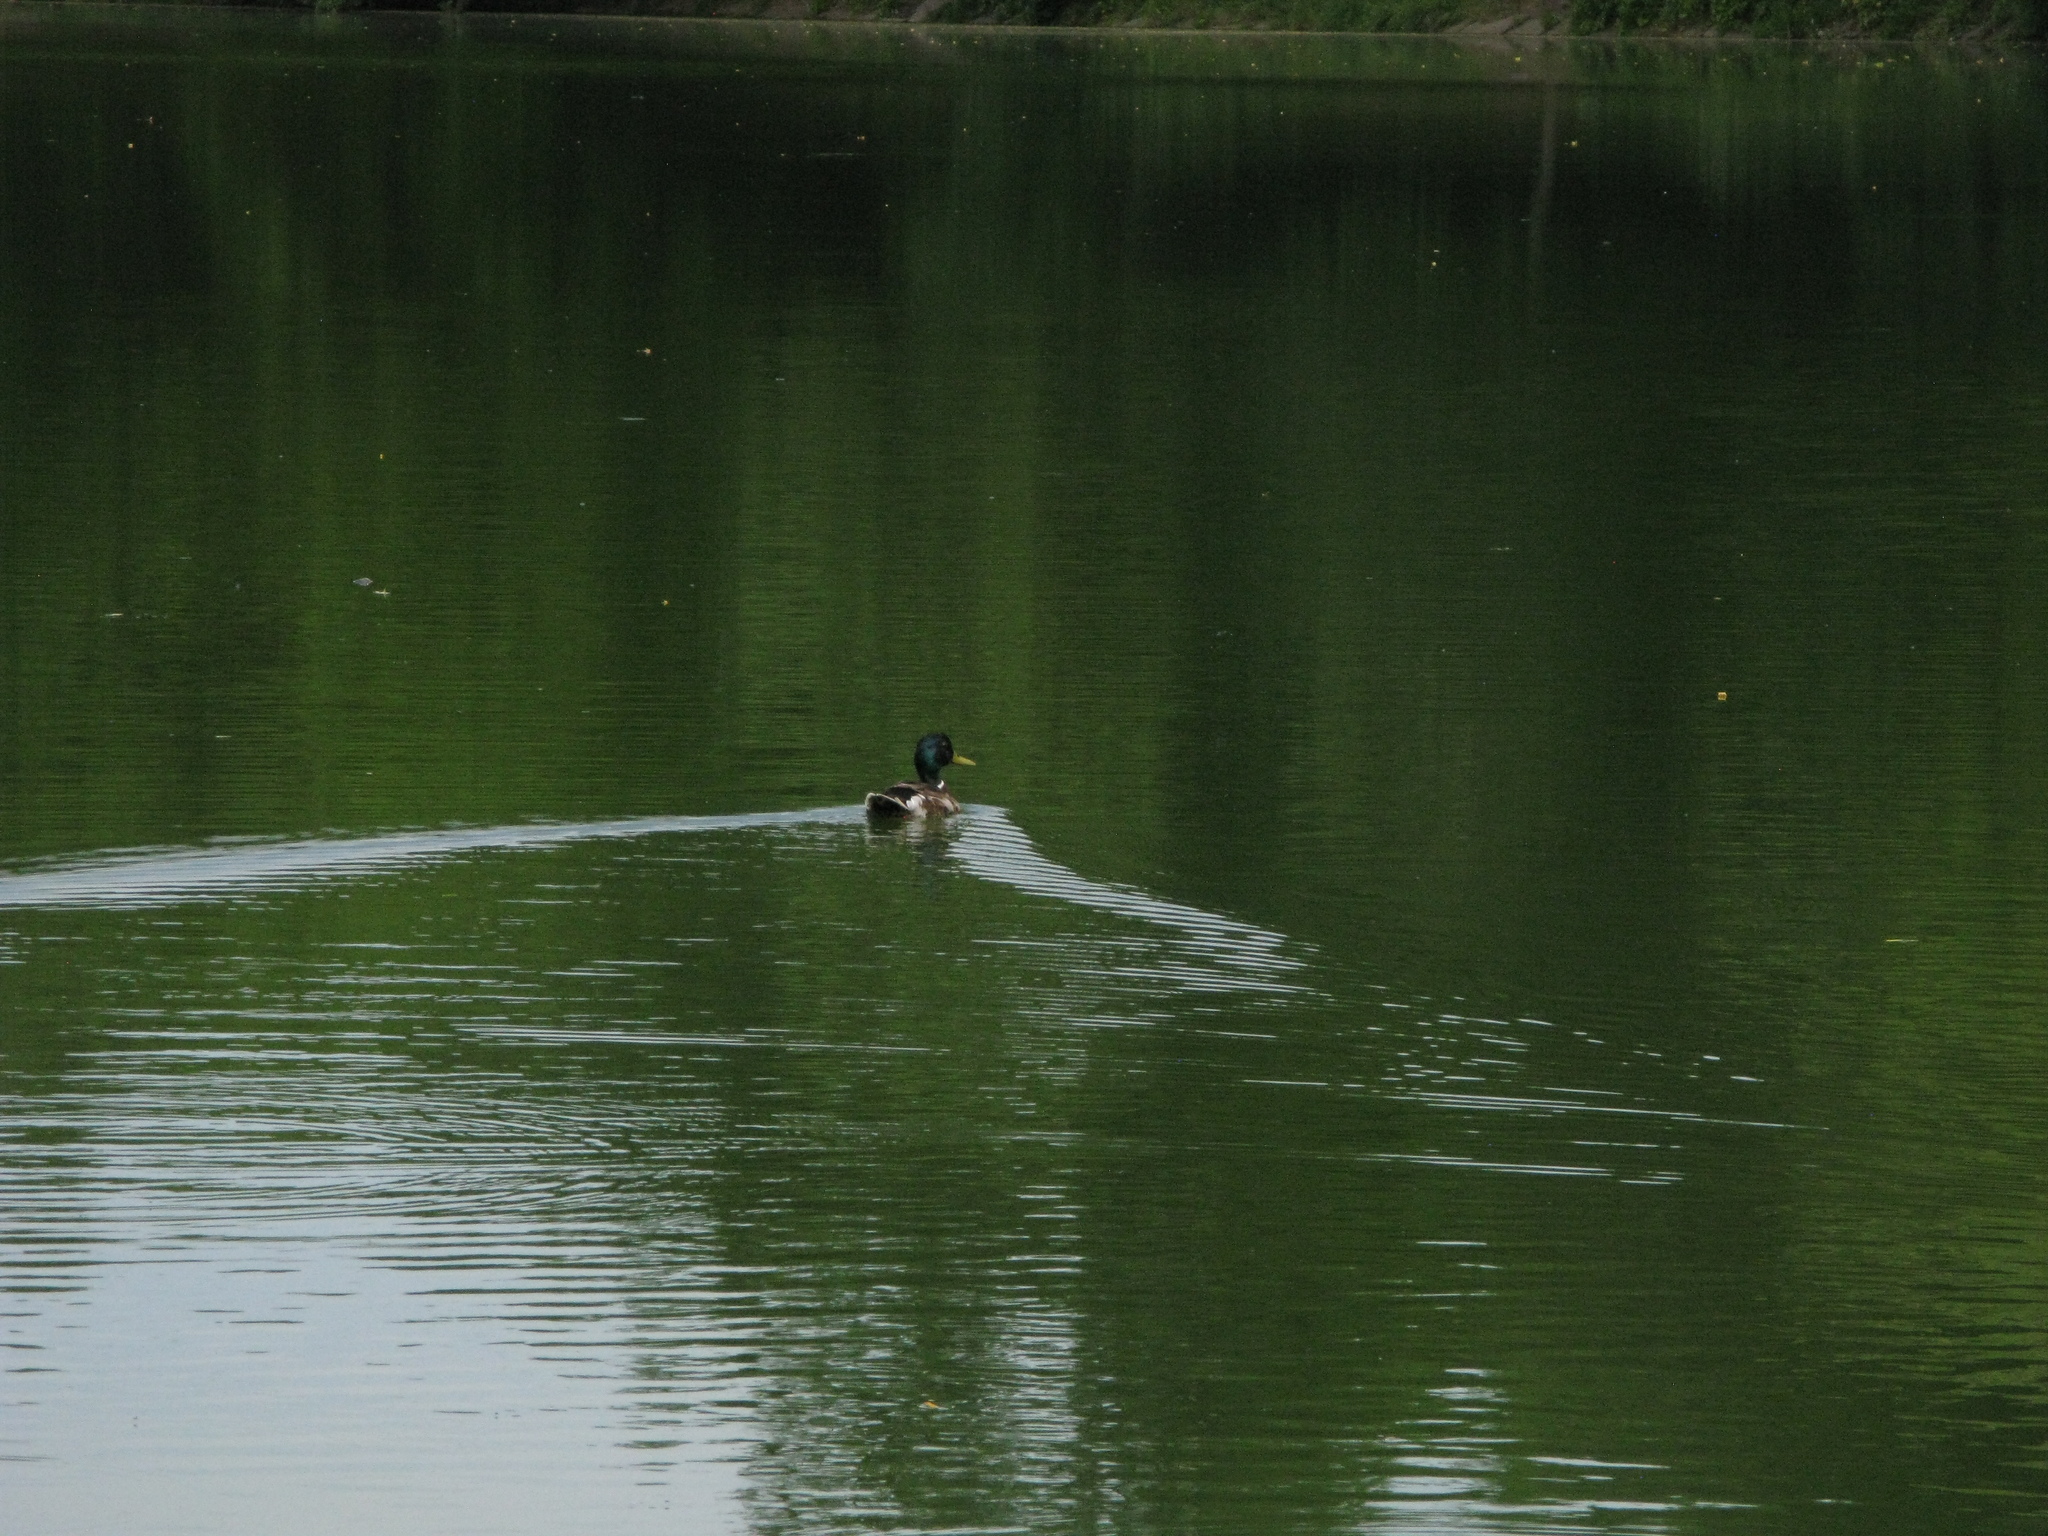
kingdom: Animalia
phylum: Chordata
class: Aves
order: Anseriformes
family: Anatidae
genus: Anas
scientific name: Anas platyrhynchos
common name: Mallard
